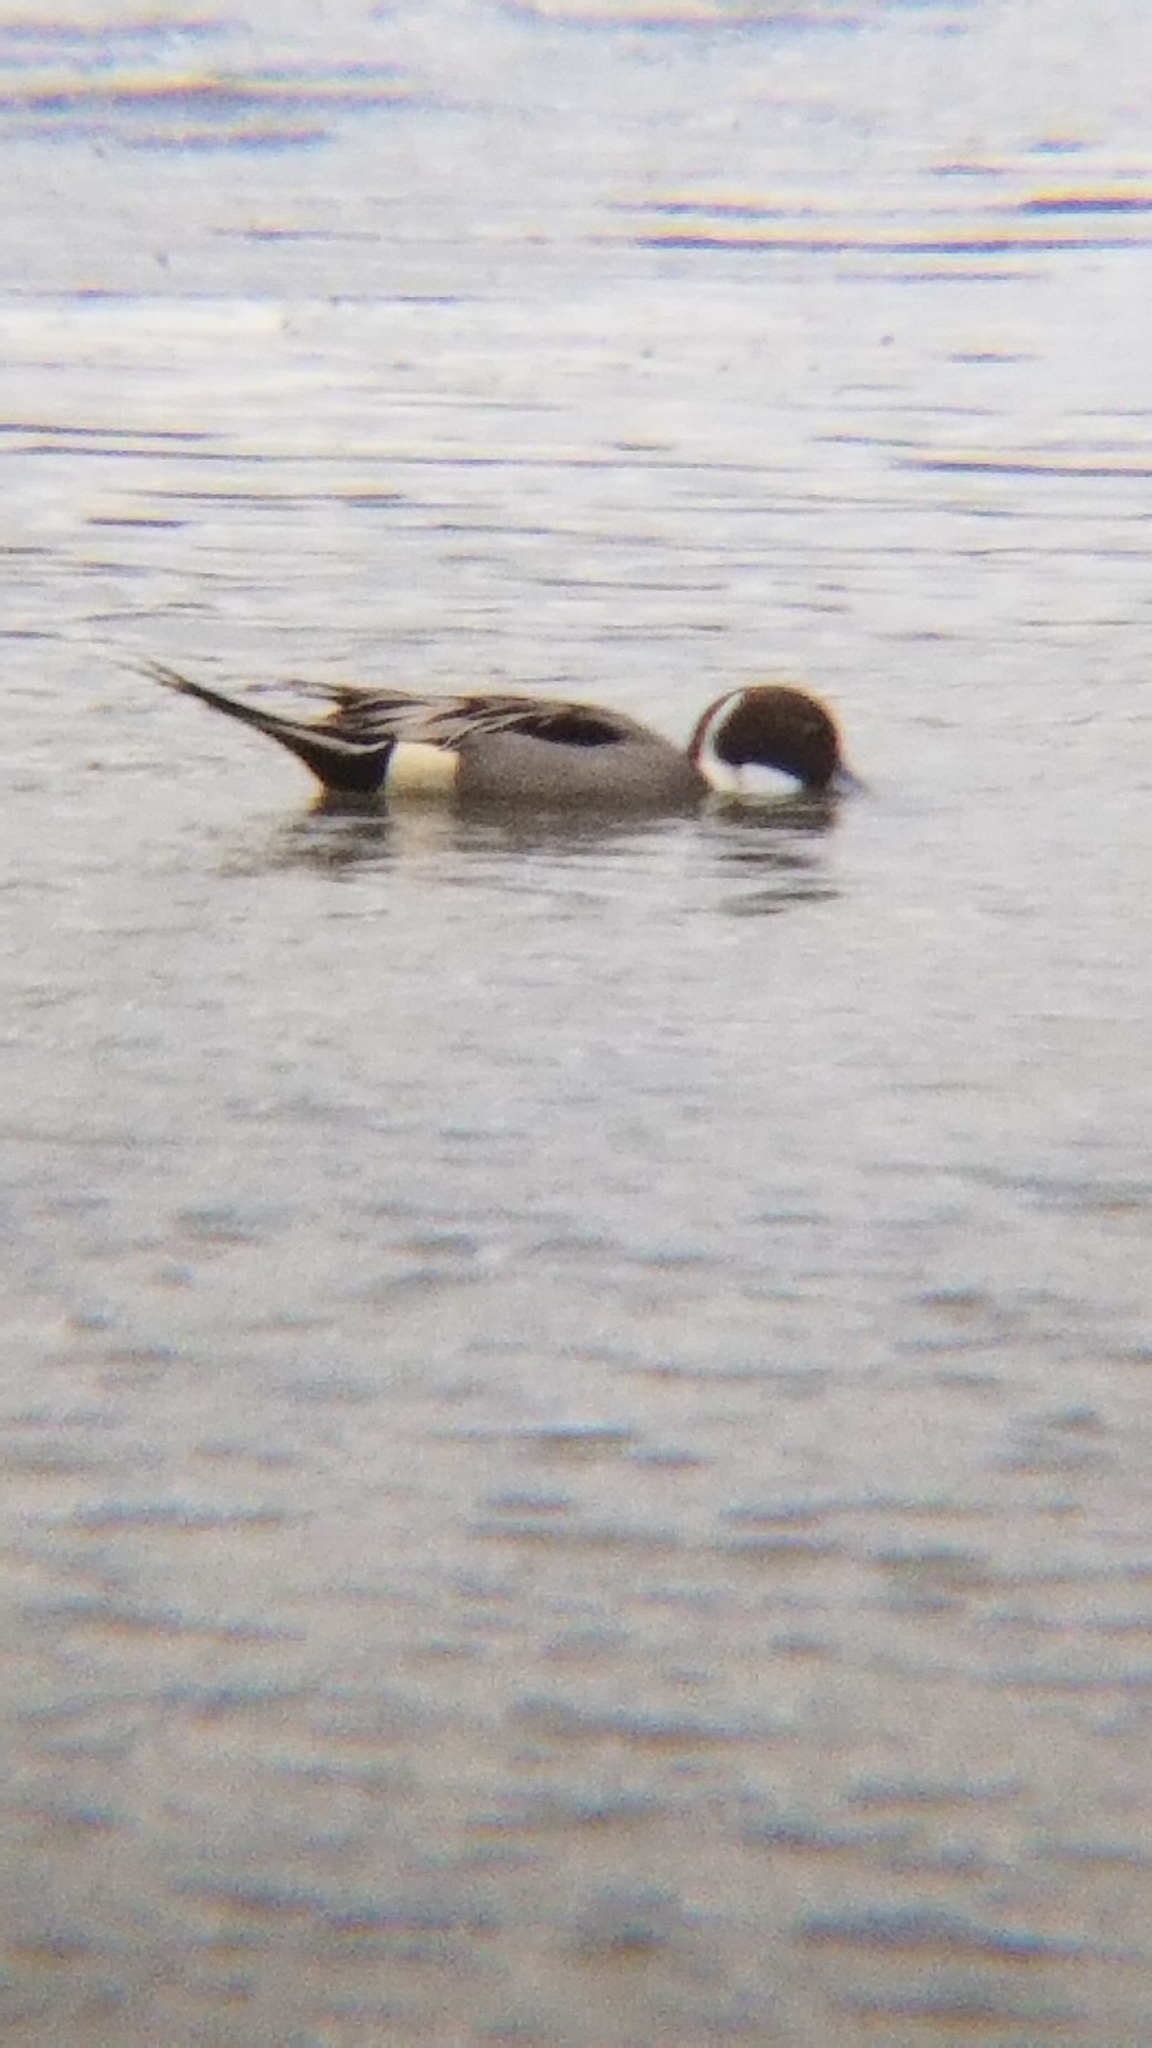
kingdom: Animalia
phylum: Chordata
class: Aves
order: Anseriformes
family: Anatidae
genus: Anas
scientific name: Anas acuta
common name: Northern pintail
